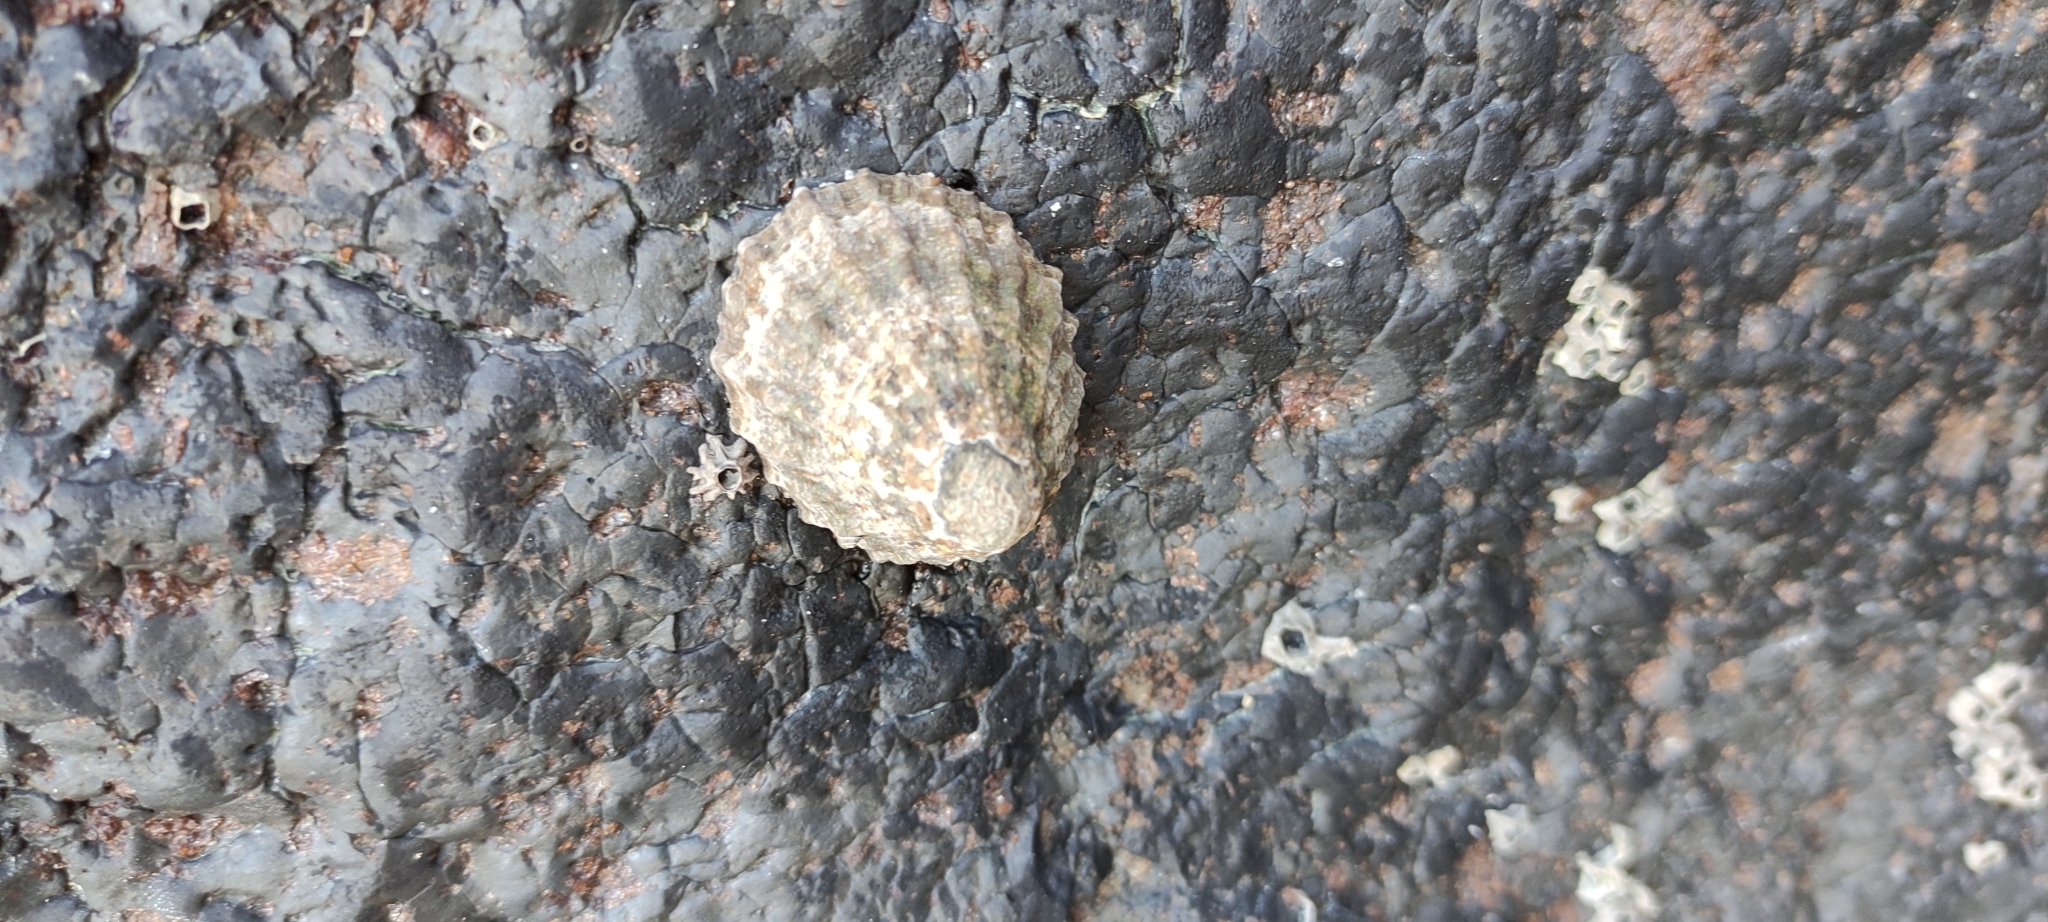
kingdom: Animalia
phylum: Mollusca
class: Gastropoda
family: Nacellidae
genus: Cellana
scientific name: Cellana ornata
